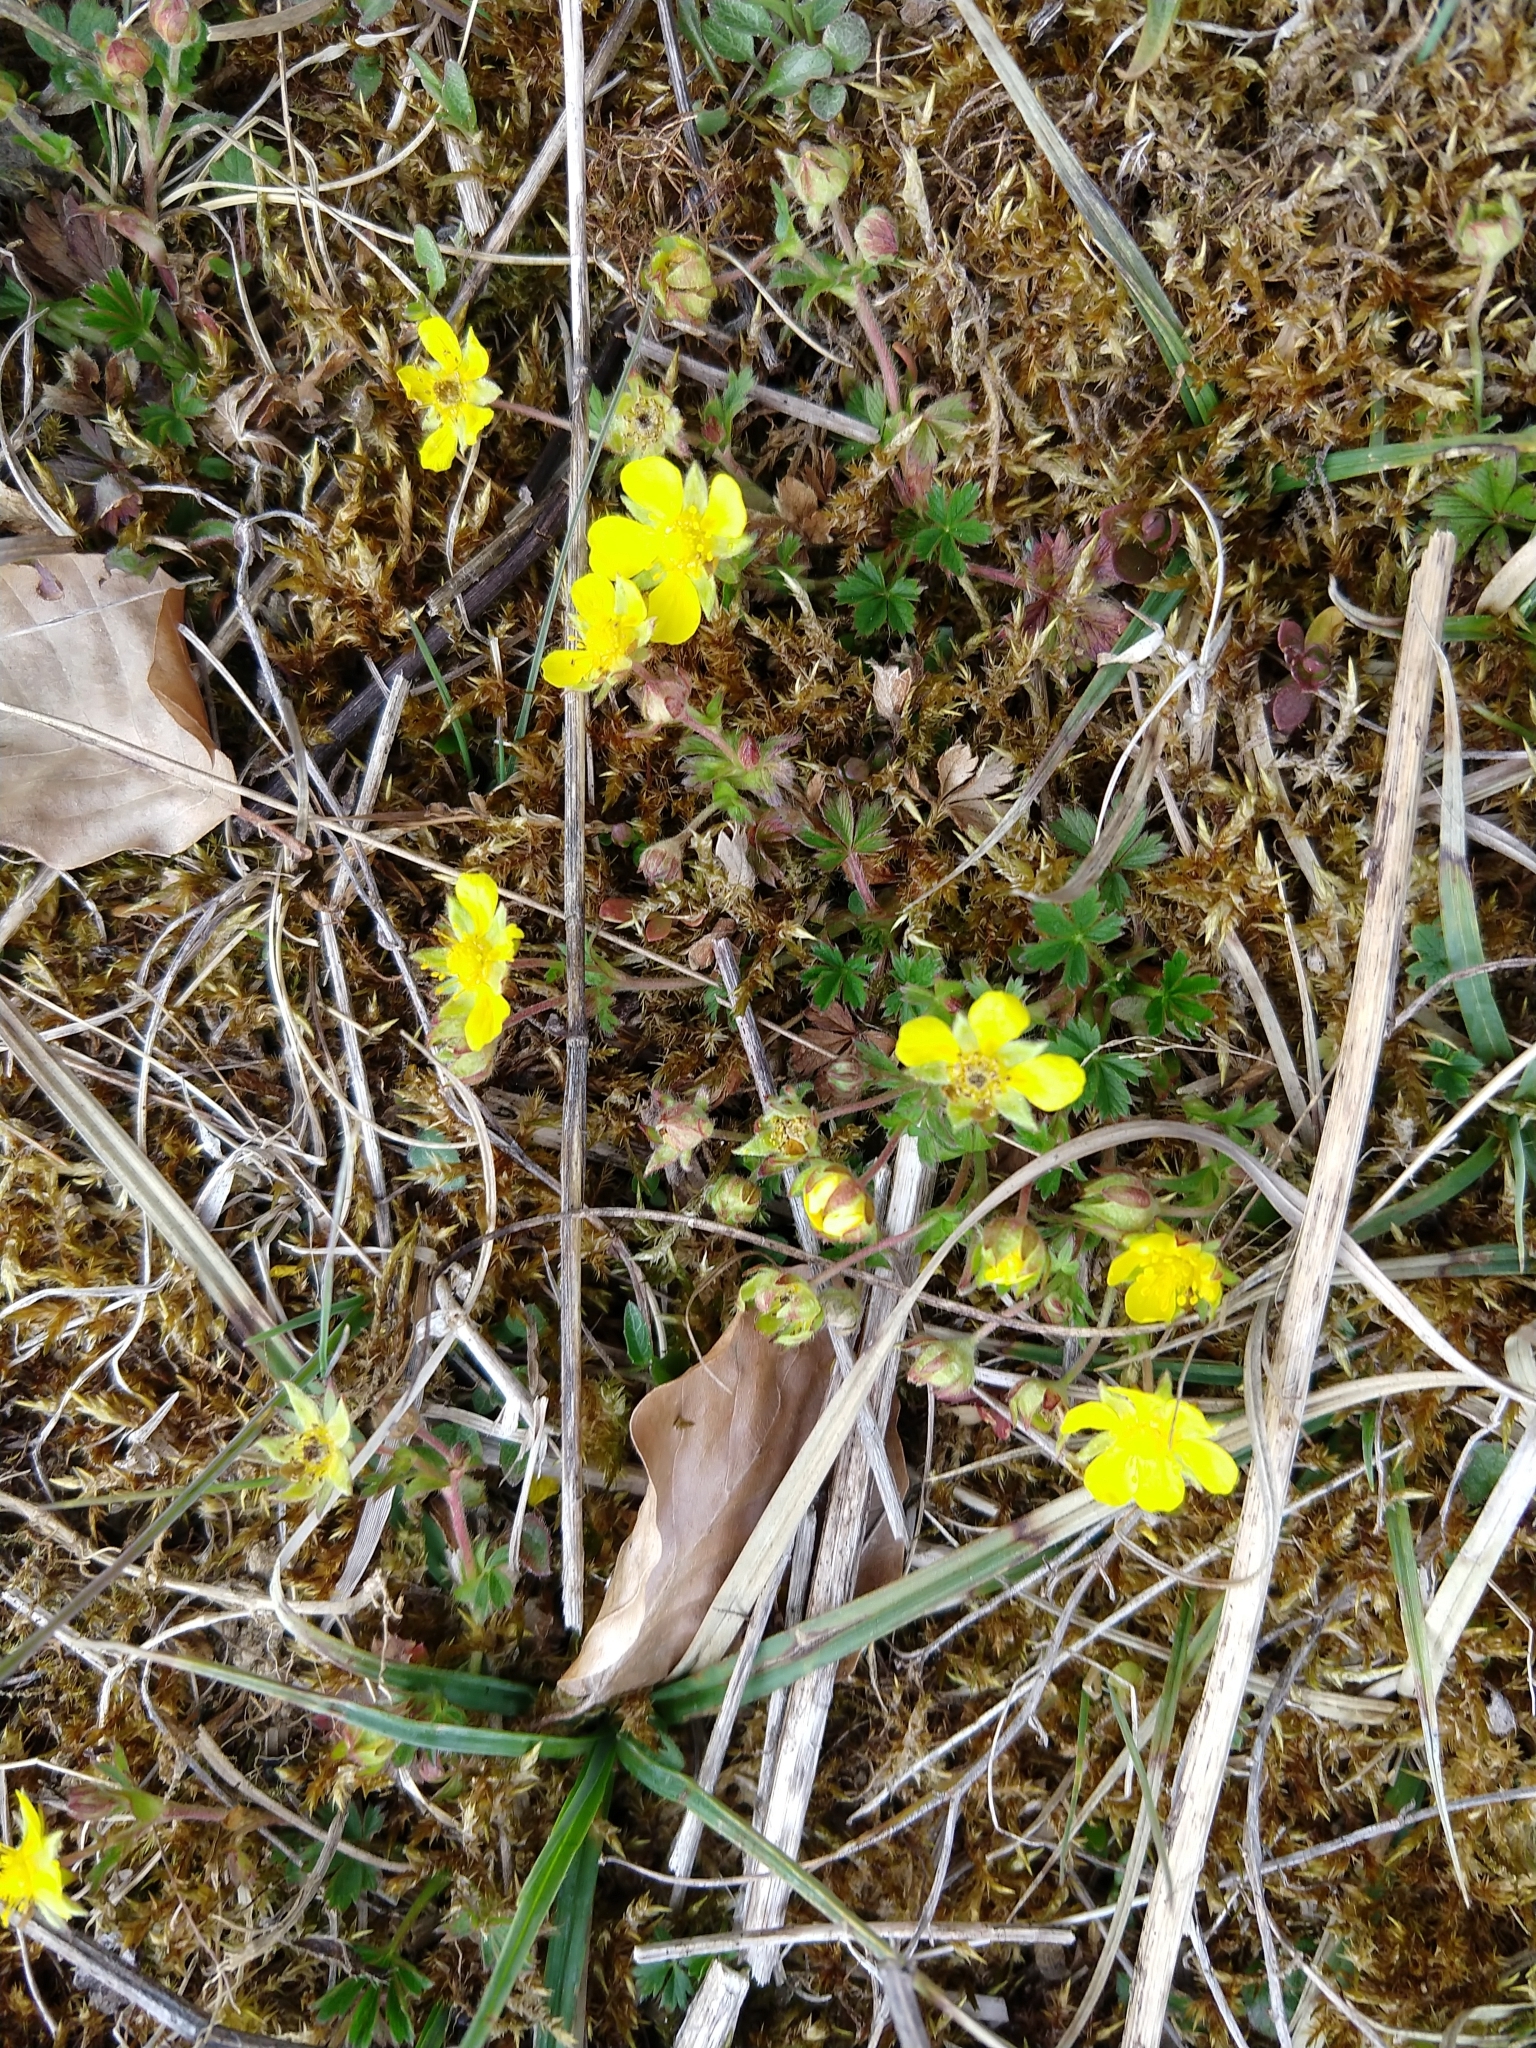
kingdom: Plantae
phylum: Tracheophyta
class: Magnoliopsida
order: Rosales
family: Rosaceae
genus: Potentilla
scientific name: Potentilla verna
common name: Spring cinquefoil
